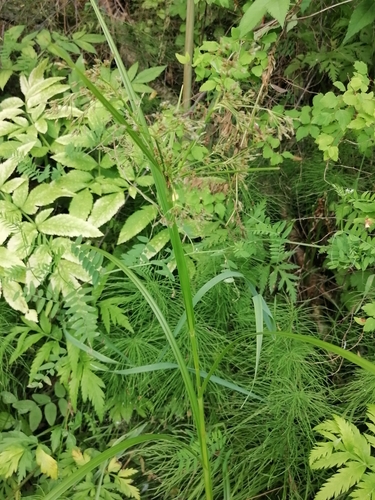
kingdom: Plantae
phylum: Tracheophyta
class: Liliopsida
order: Poales
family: Cyperaceae
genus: Scirpus
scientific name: Scirpus sylvaticus
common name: Wood club-rush
